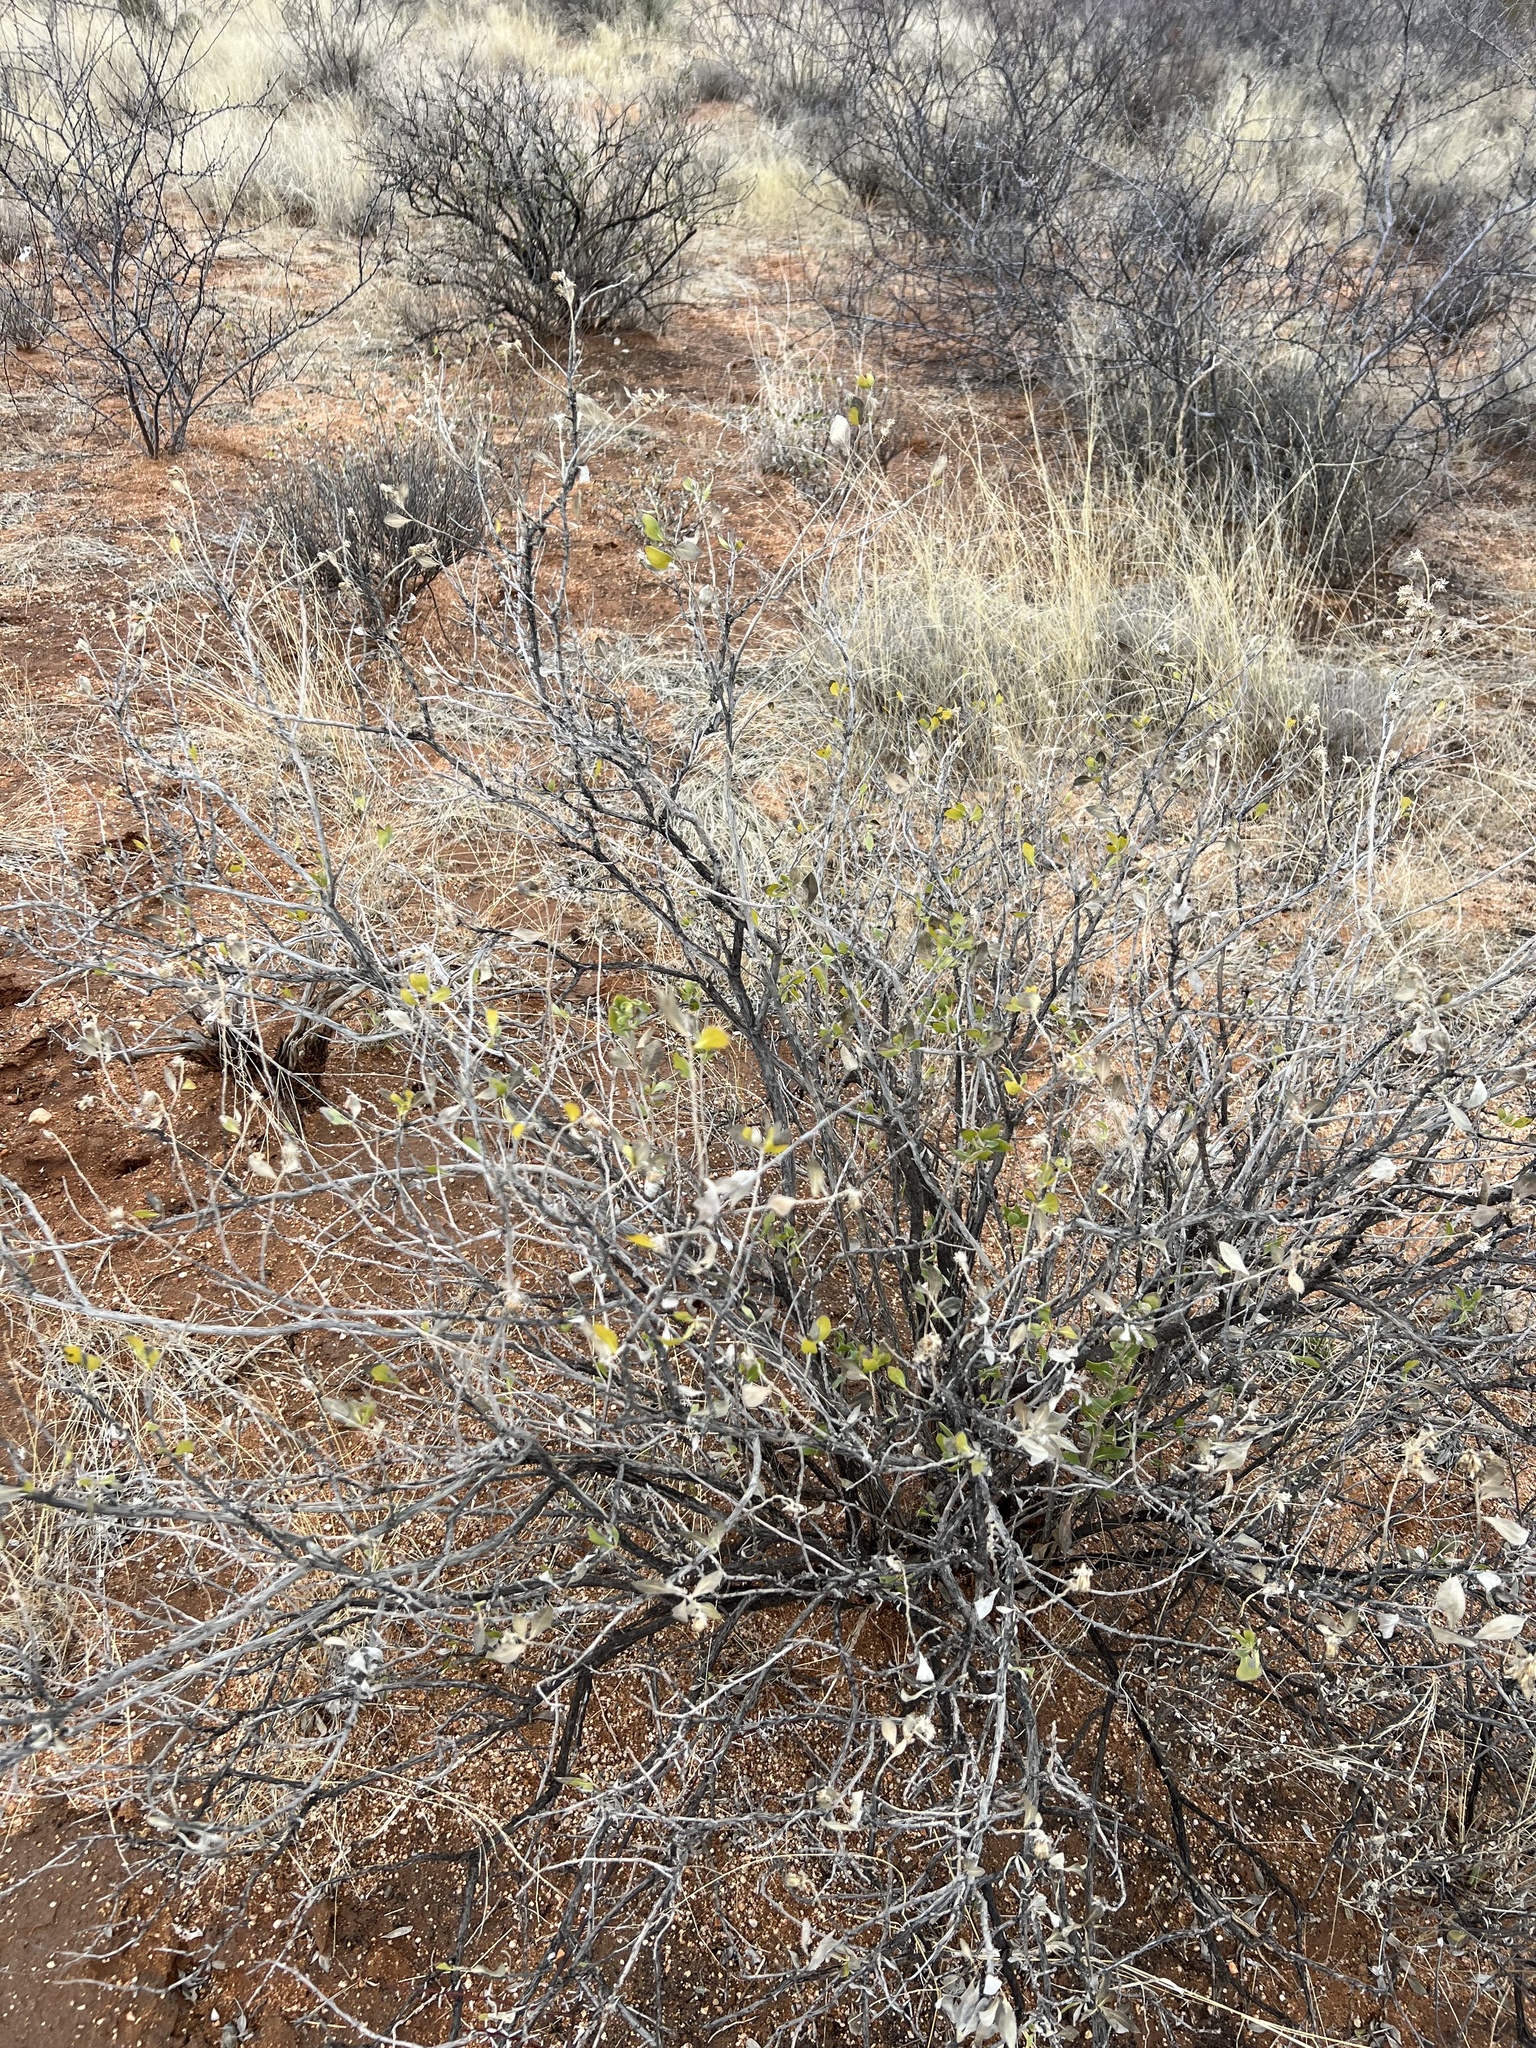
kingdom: Plantae
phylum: Tracheophyta
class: Magnoliopsida
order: Asterales
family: Asteraceae
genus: Flourensia
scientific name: Flourensia cernua
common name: Varnishbush
